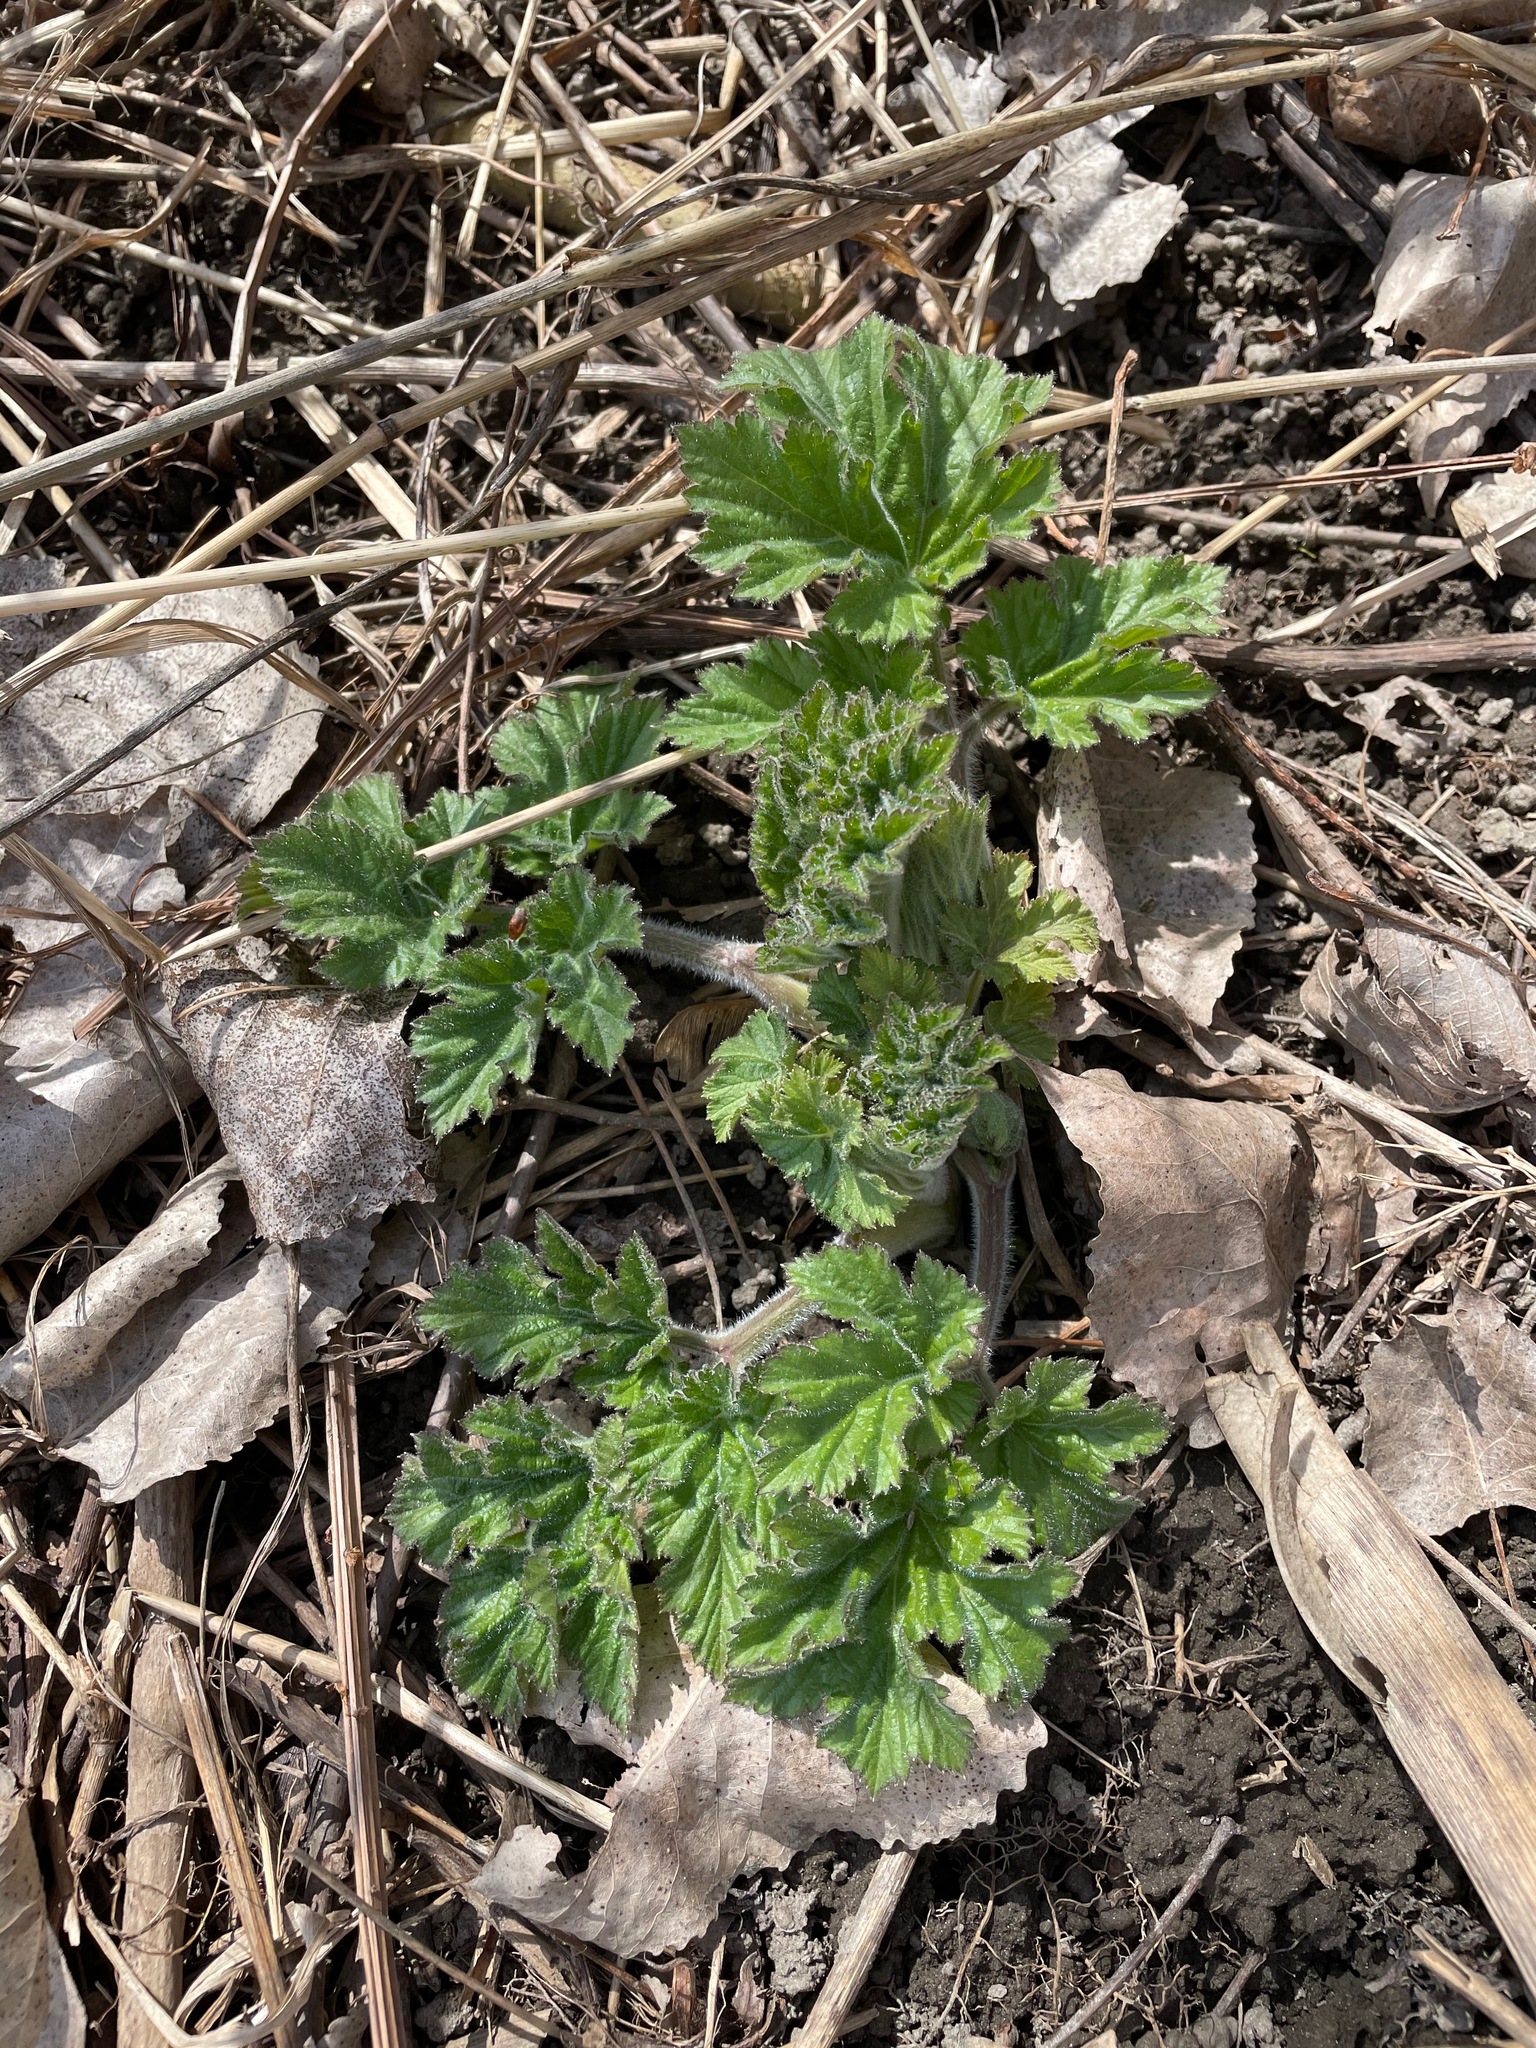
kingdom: Plantae
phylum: Tracheophyta
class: Magnoliopsida
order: Apiales
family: Apiaceae
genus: Heracleum
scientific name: Heracleum maximum
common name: American cow parsnip
